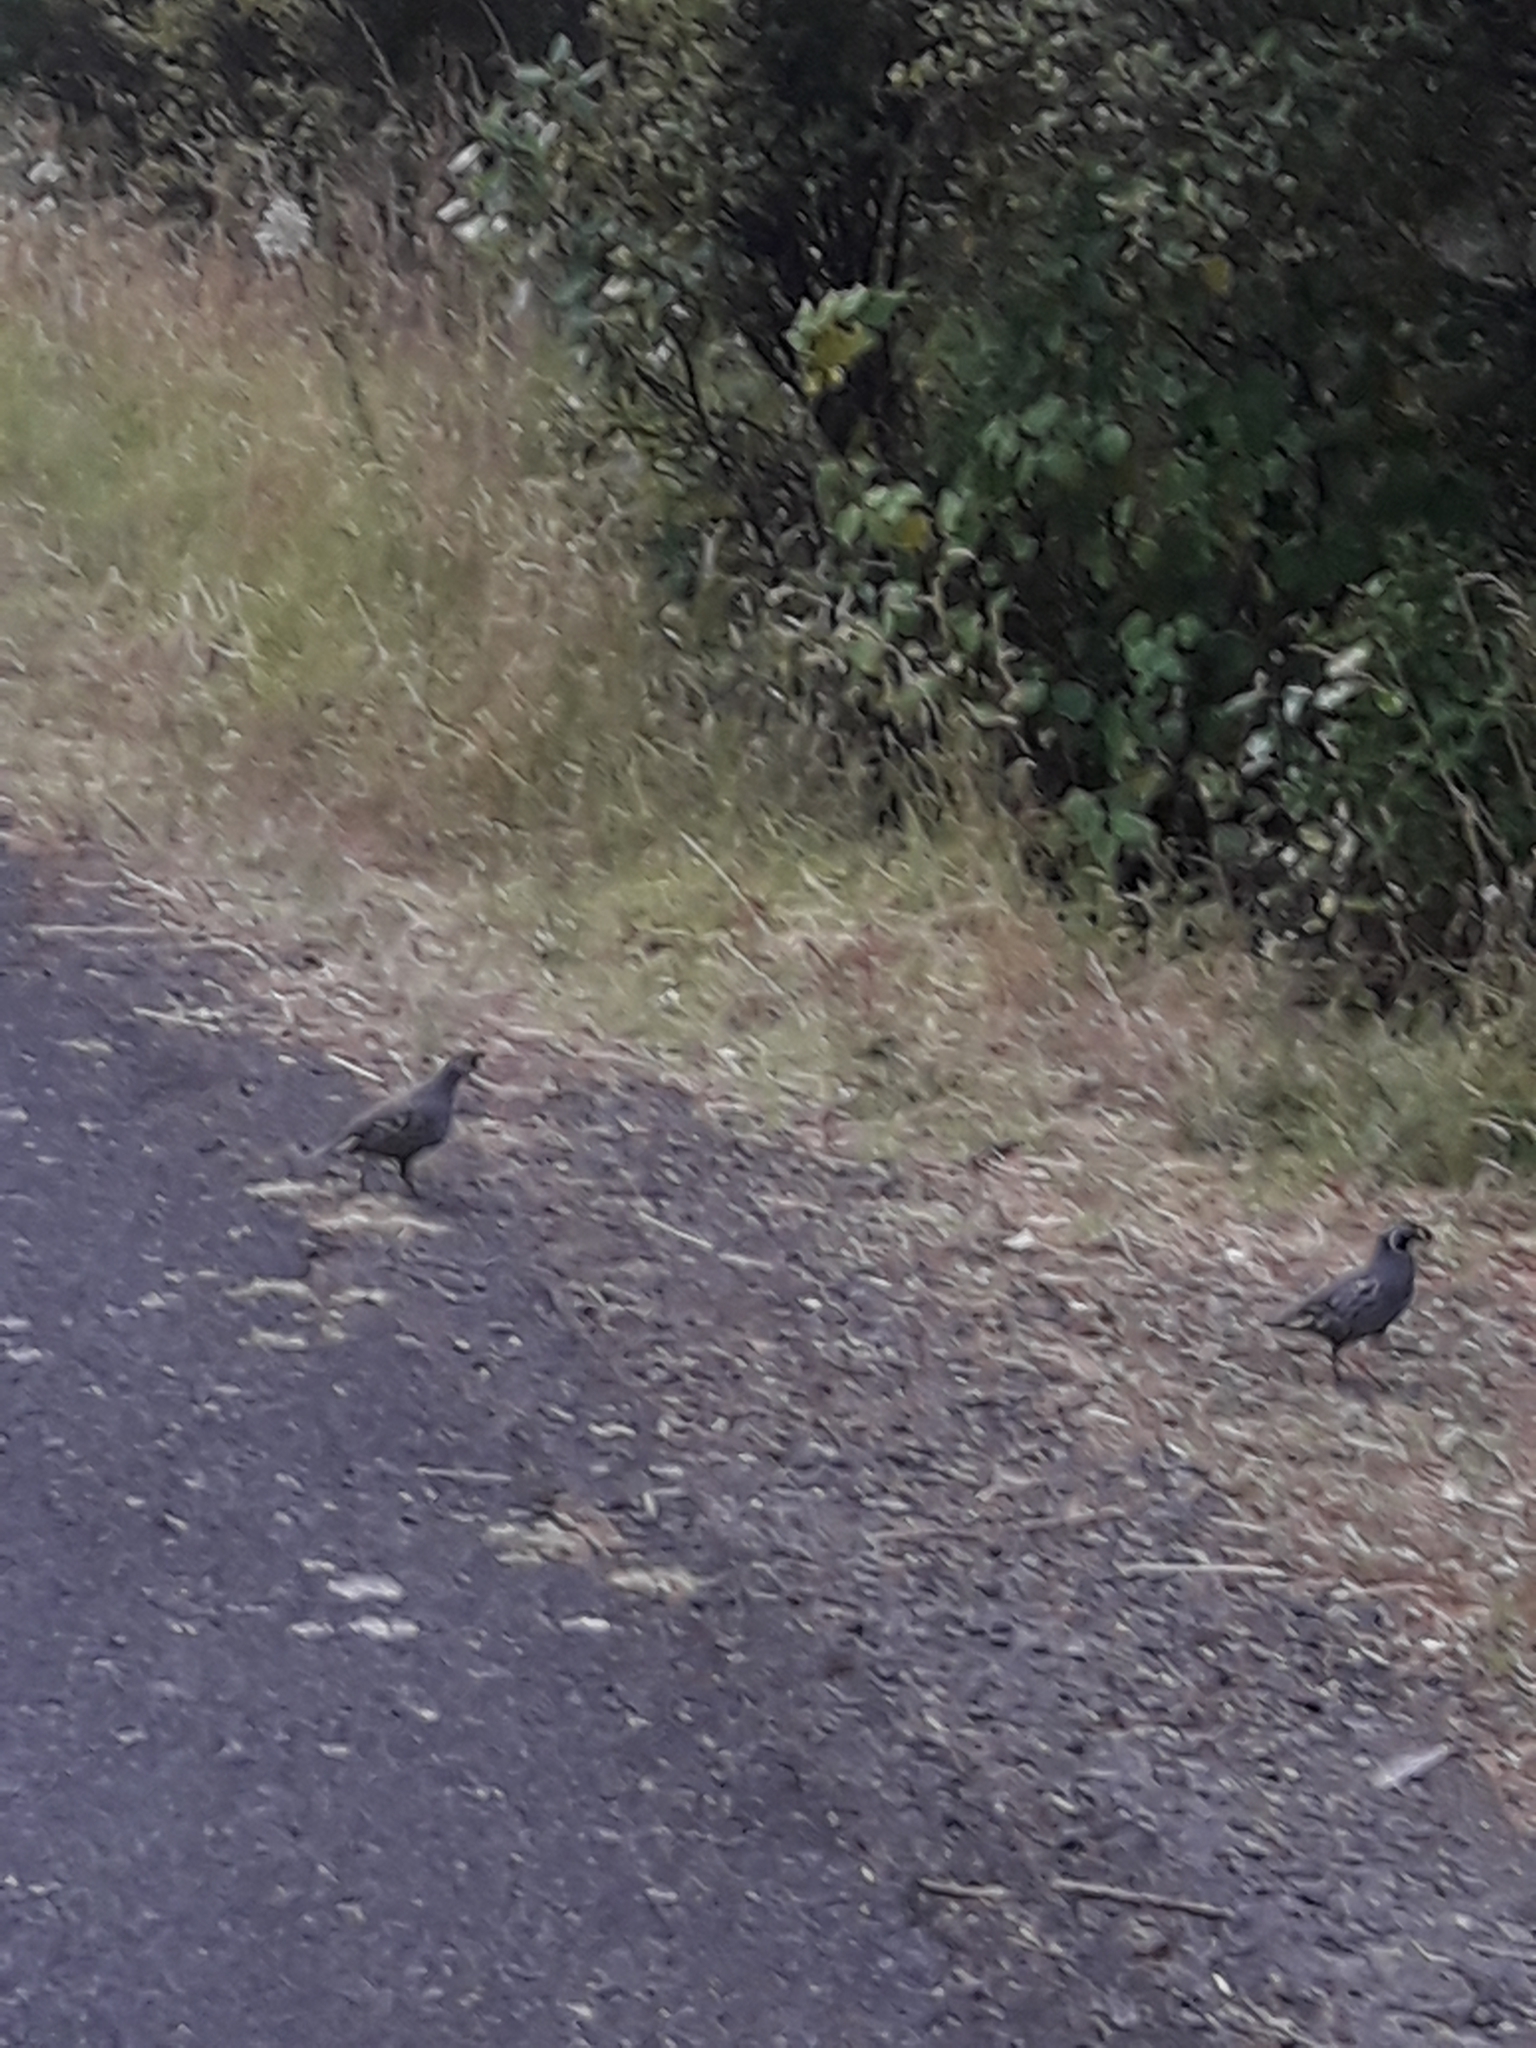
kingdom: Animalia
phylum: Chordata
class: Aves
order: Galliformes
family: Odontophoridae
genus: Callipepla
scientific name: Callipepla californica
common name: California quail
